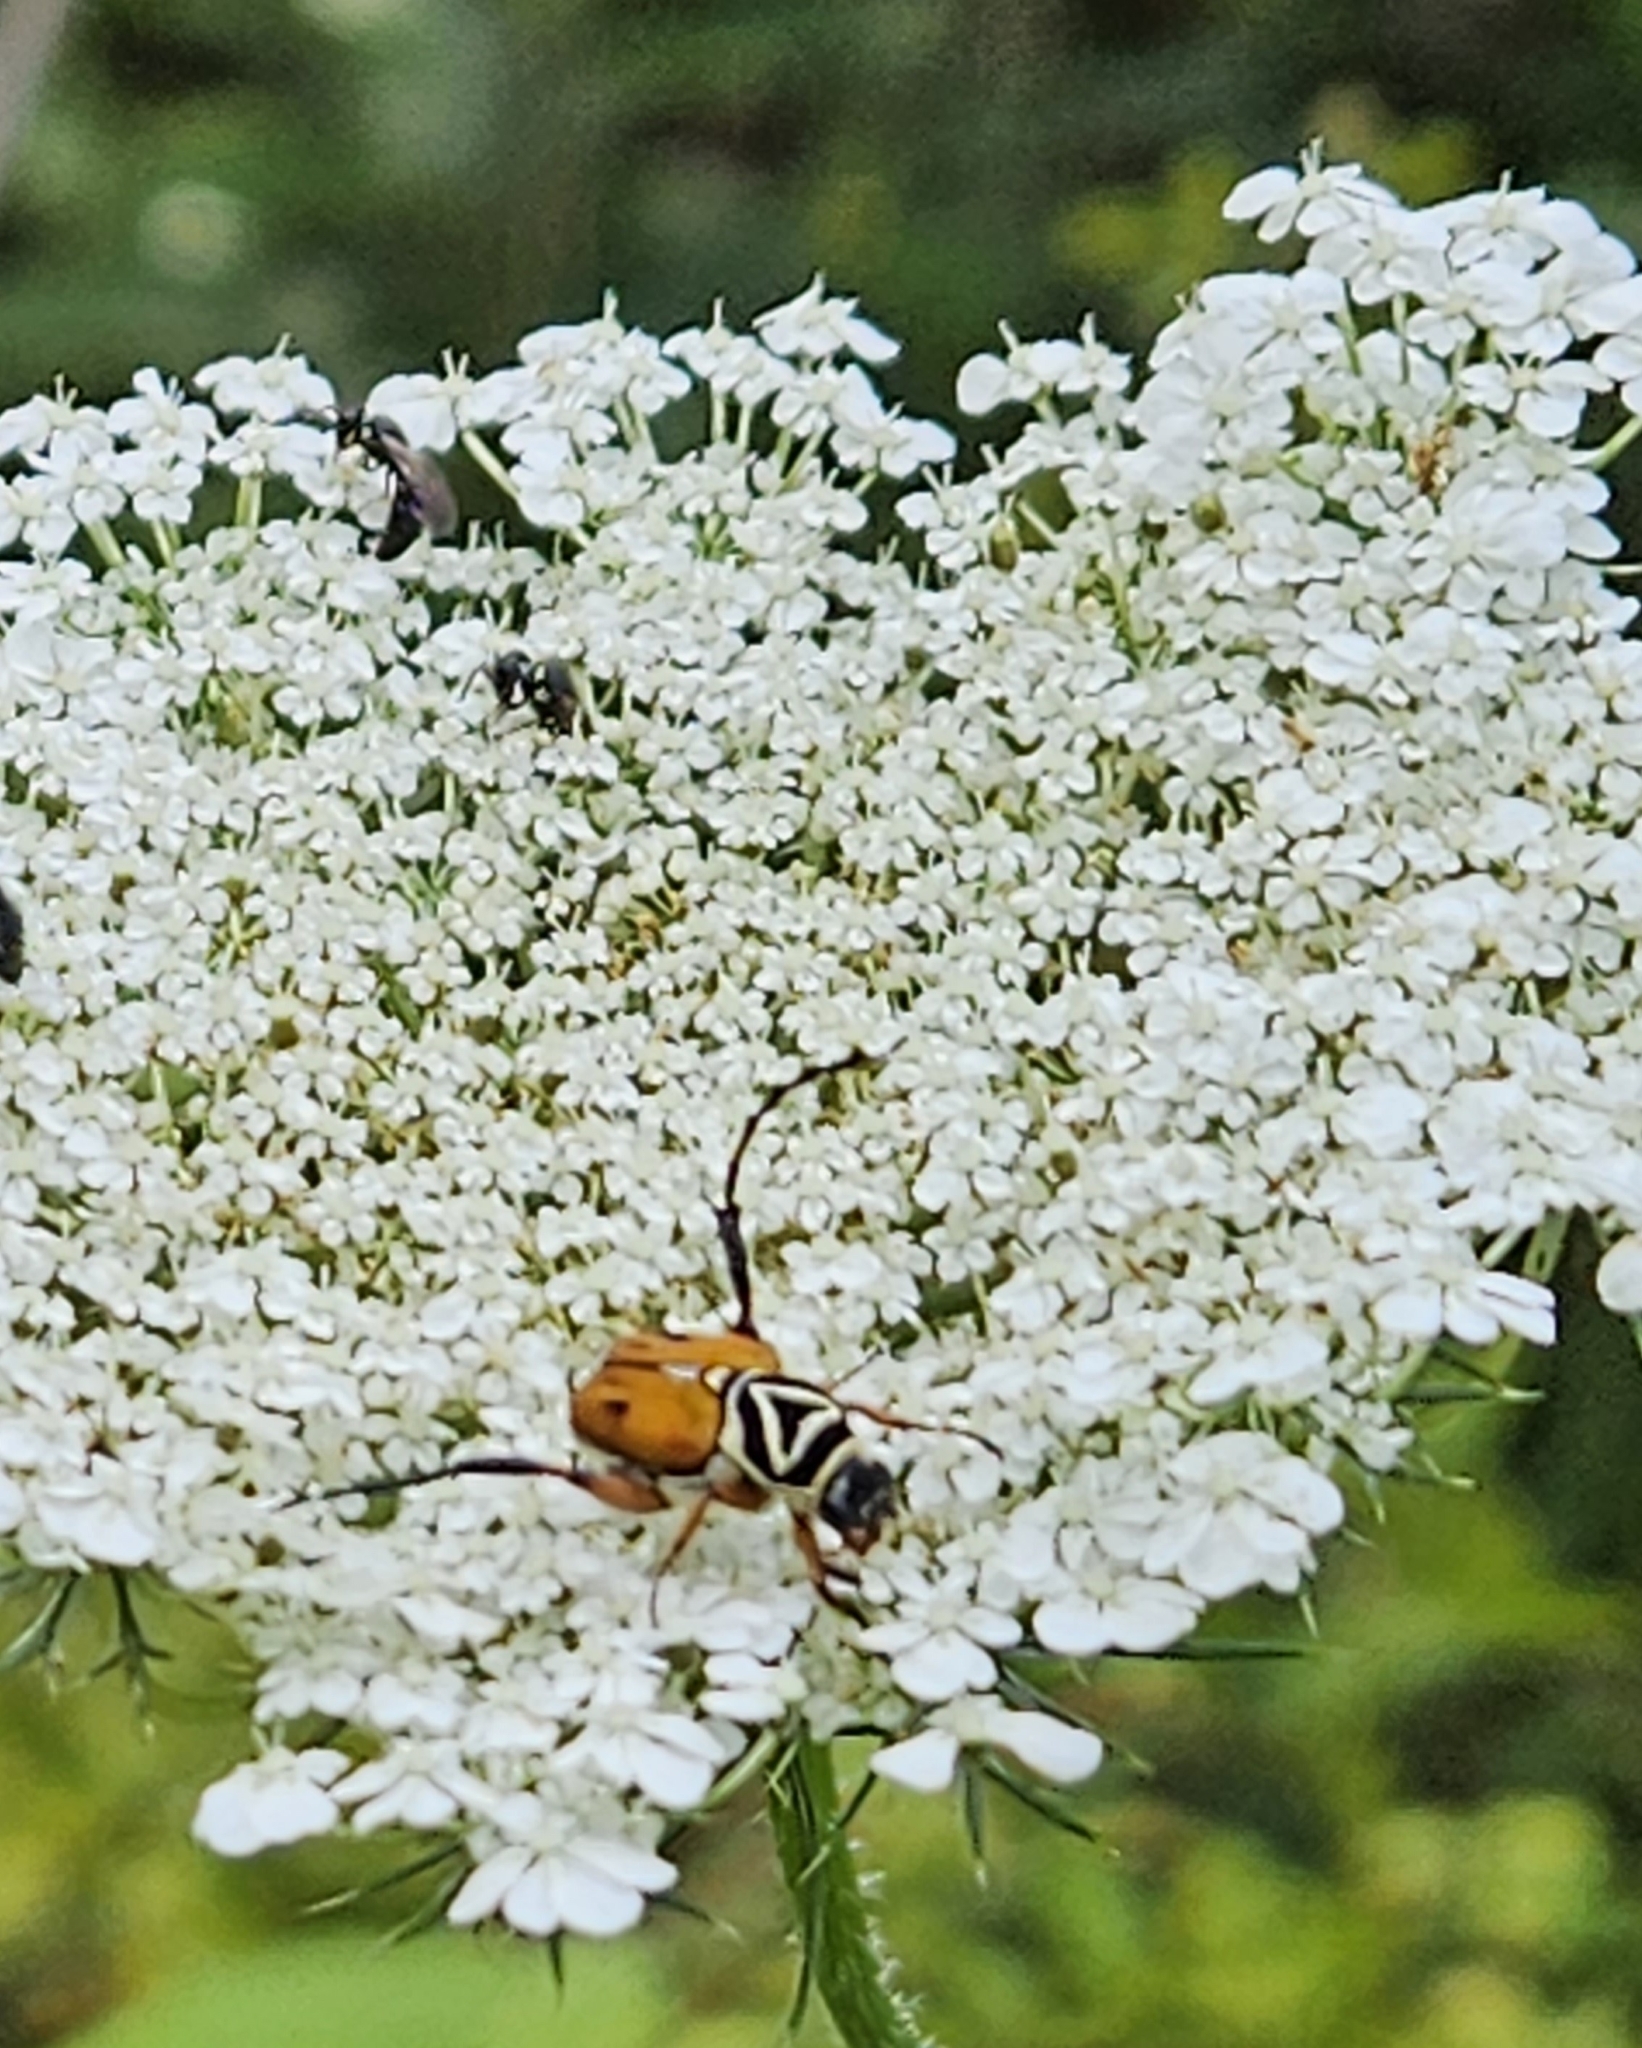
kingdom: Animalia
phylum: Arthropoda
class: Insecta
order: Coleoptera
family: Scarabaeidae
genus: Trigonopeltastes
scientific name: Trigonopeltastes delta
